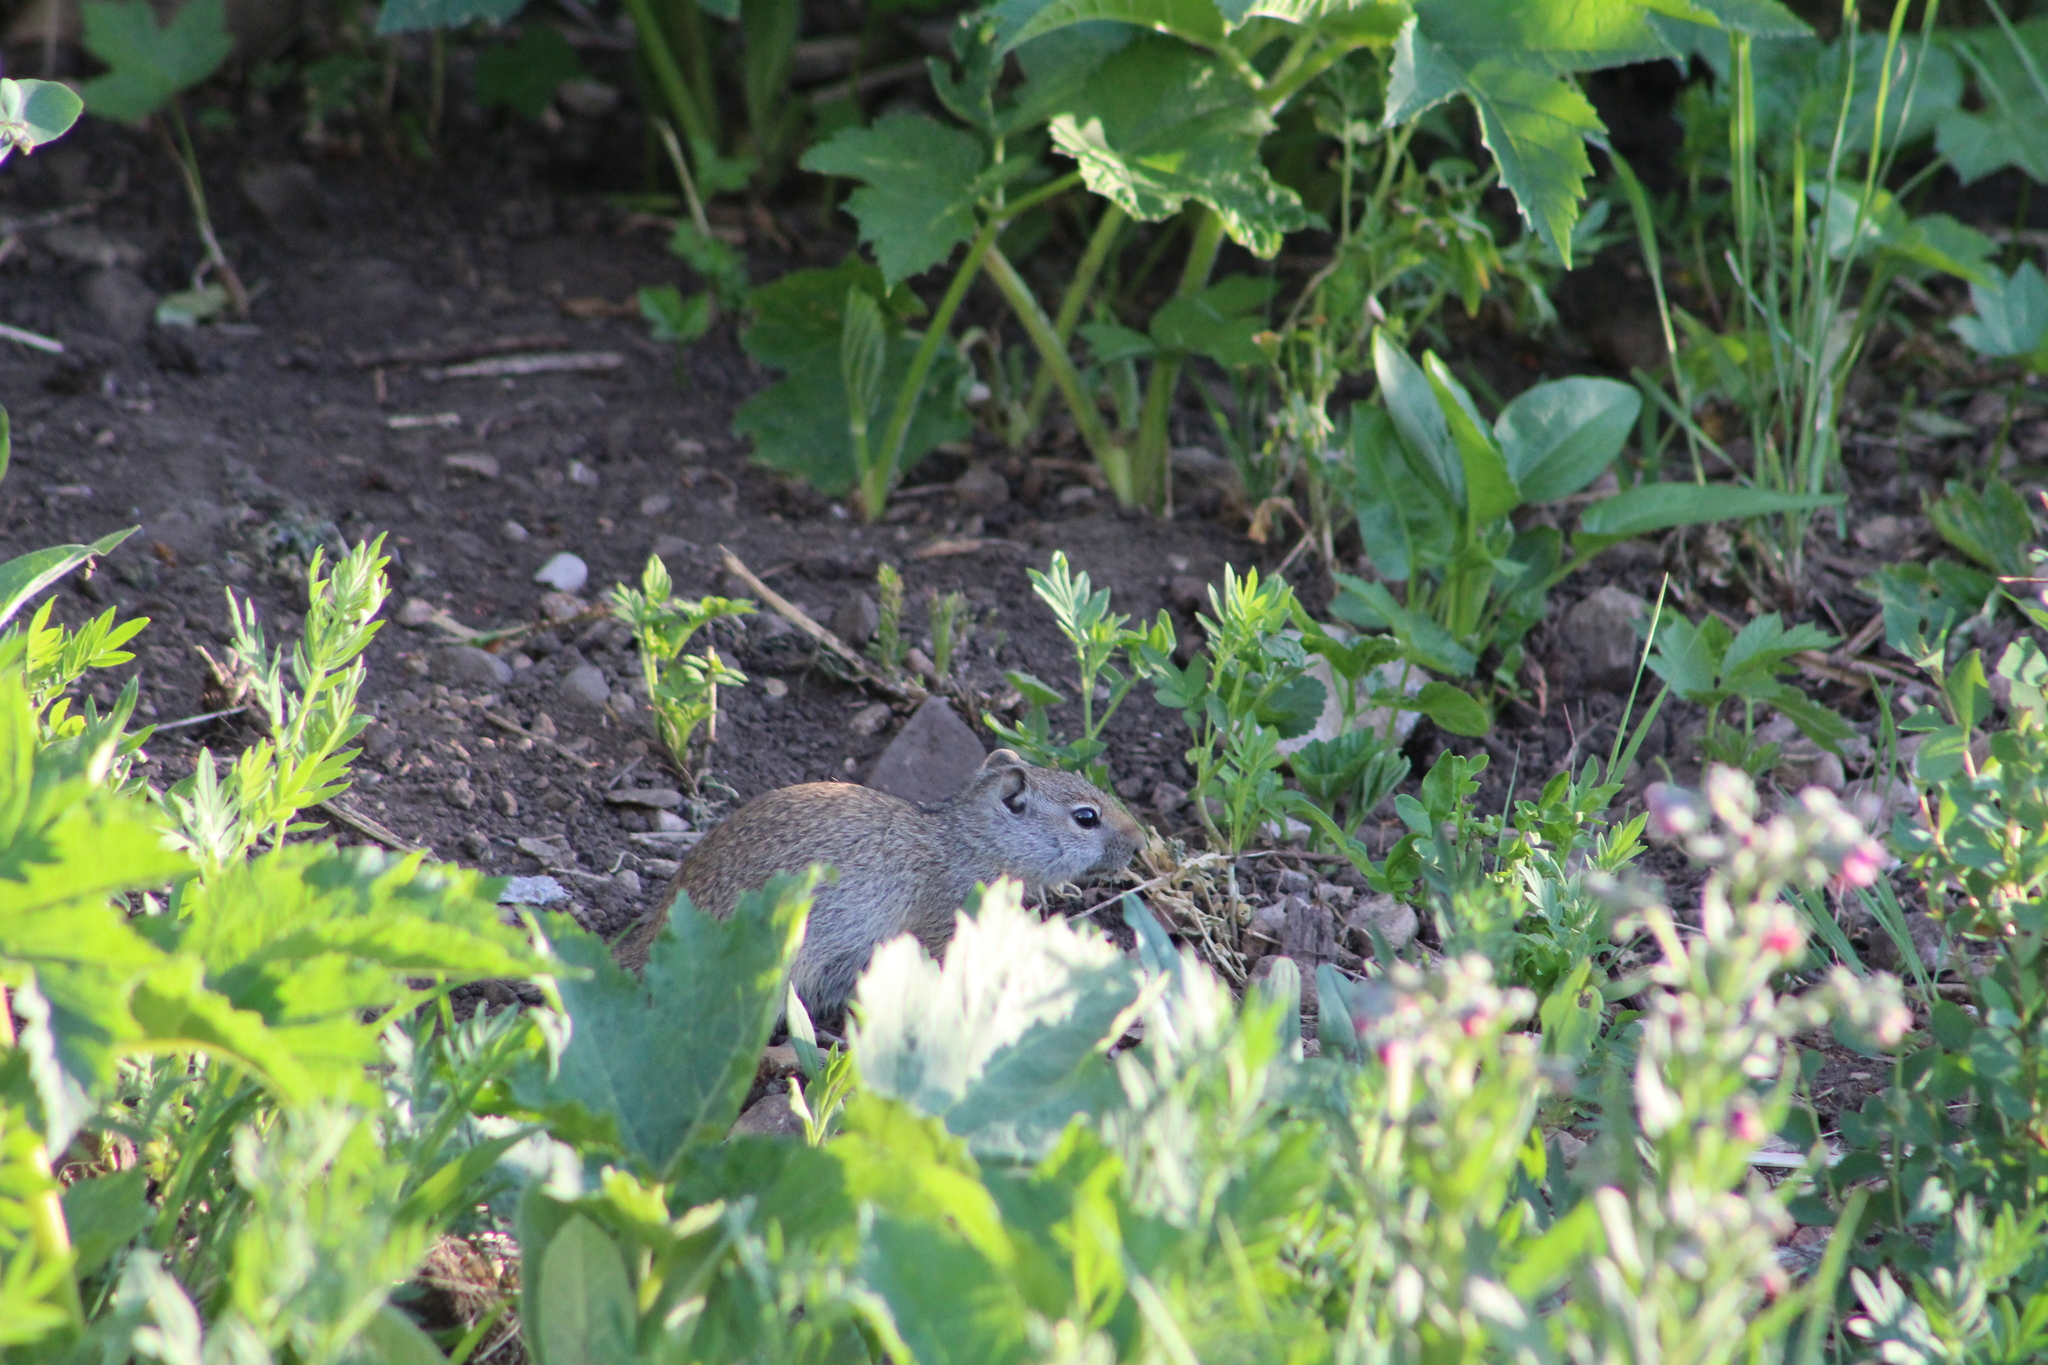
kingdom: Animalia
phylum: Chordata
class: Mammalia
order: Rodentia
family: Sciuridae
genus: Urocitellus
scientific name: Urocitellus armatus
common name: Uinta ground squirrel
